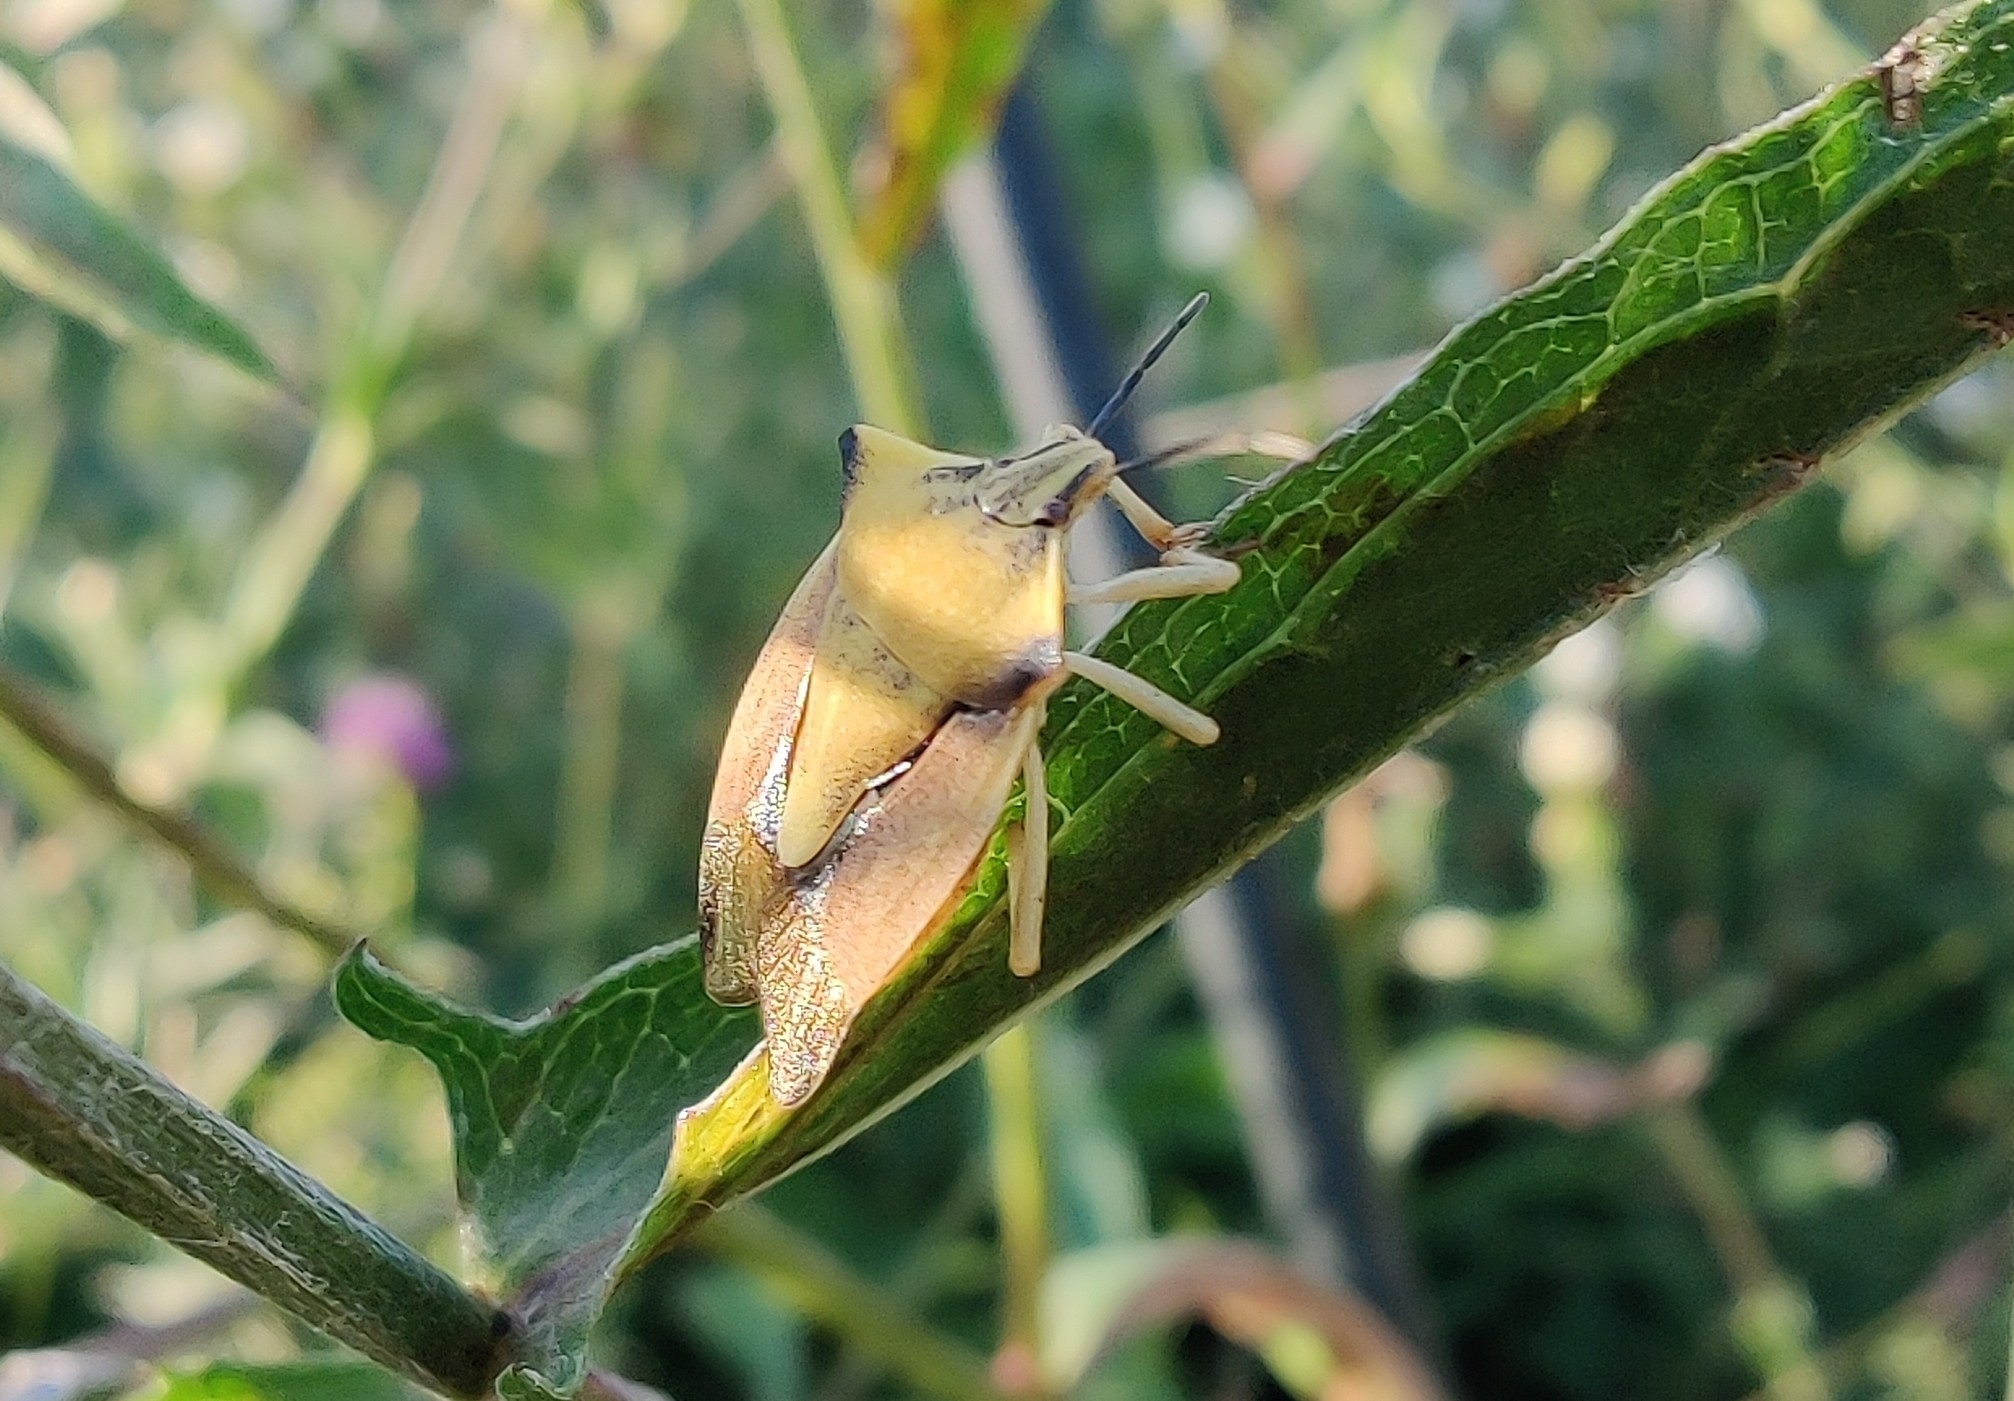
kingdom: Animalia
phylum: Arthropoda
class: Insecta
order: Hemiptera
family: Pentatomidae
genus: Carpocoris
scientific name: Carpocoris fuscispinus
